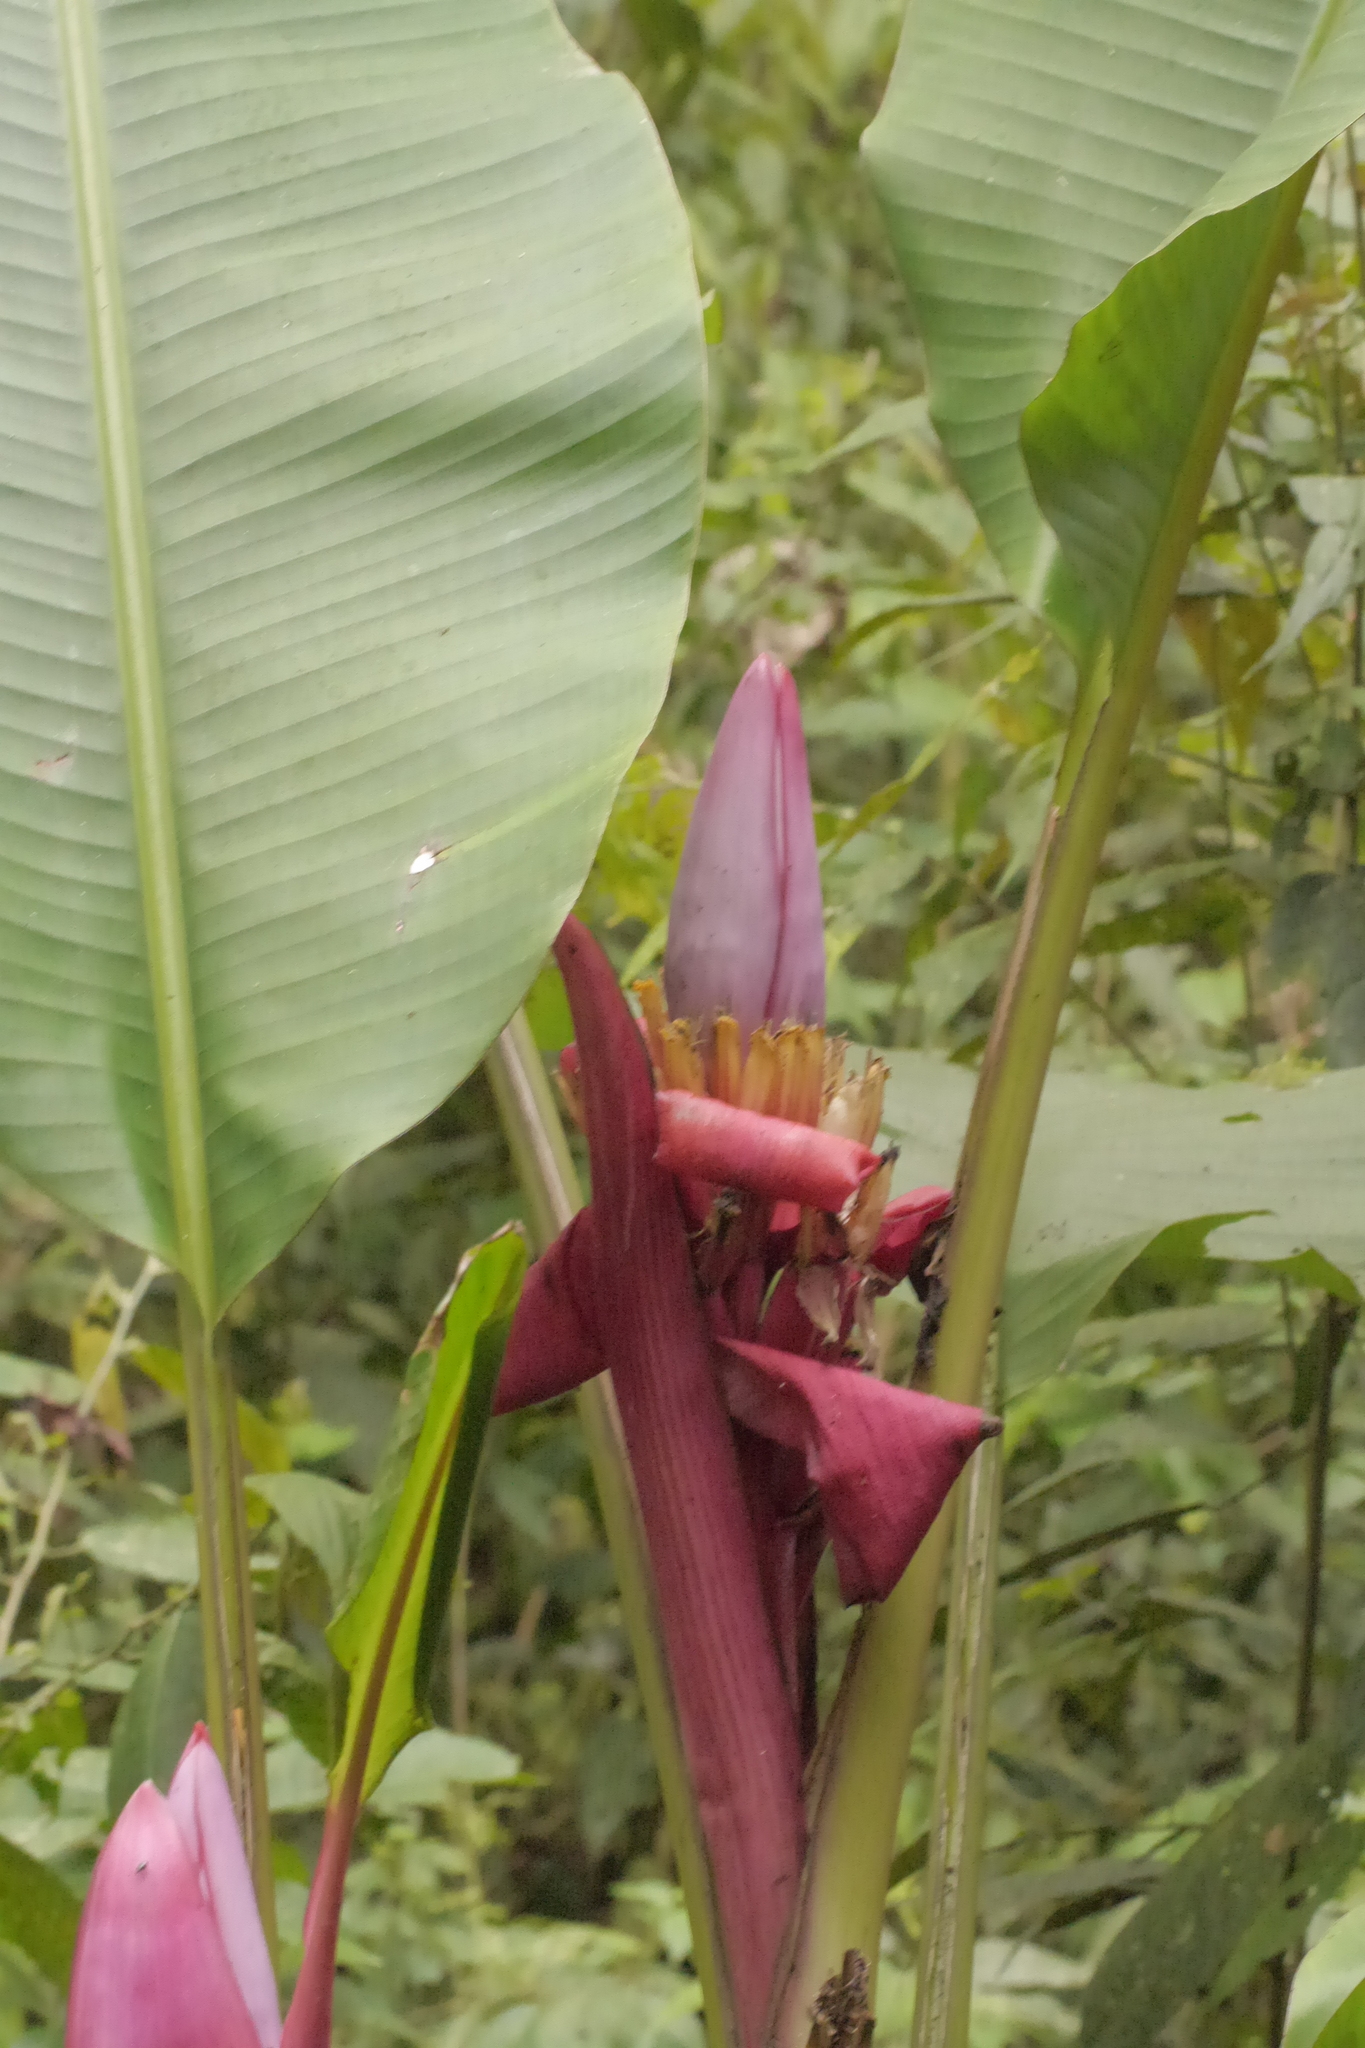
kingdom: Plantae
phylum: Tracheophyta
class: Liliopsida
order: Zingiberales
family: Musaceae
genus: Musa
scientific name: Musa velutina
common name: Pink velvet banana
